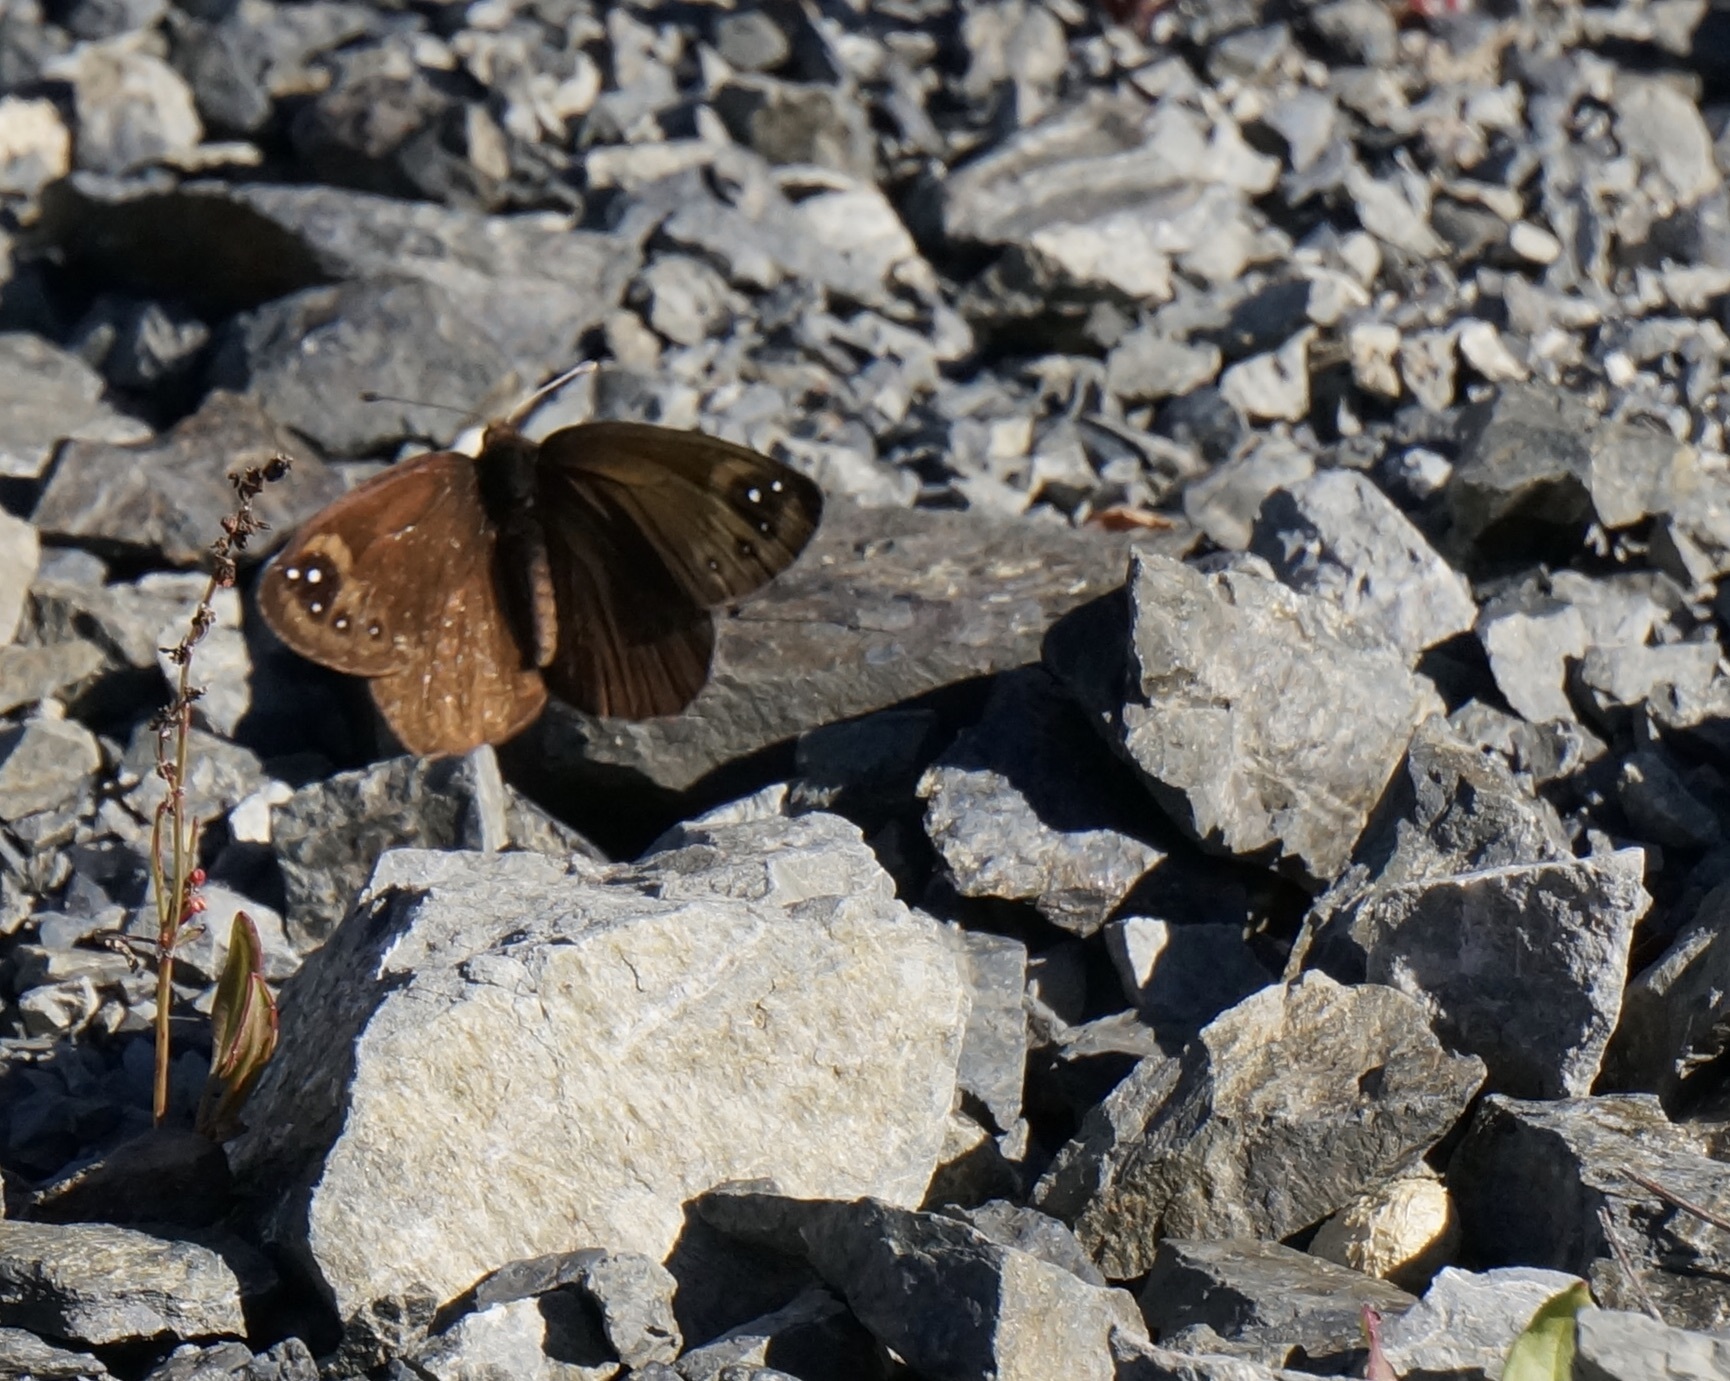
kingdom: Animalia
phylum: Arthropoda
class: Insecta
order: Lepidoptera
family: Nymphalidae
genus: Erebia
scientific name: Erebia Percnodaimon merula
